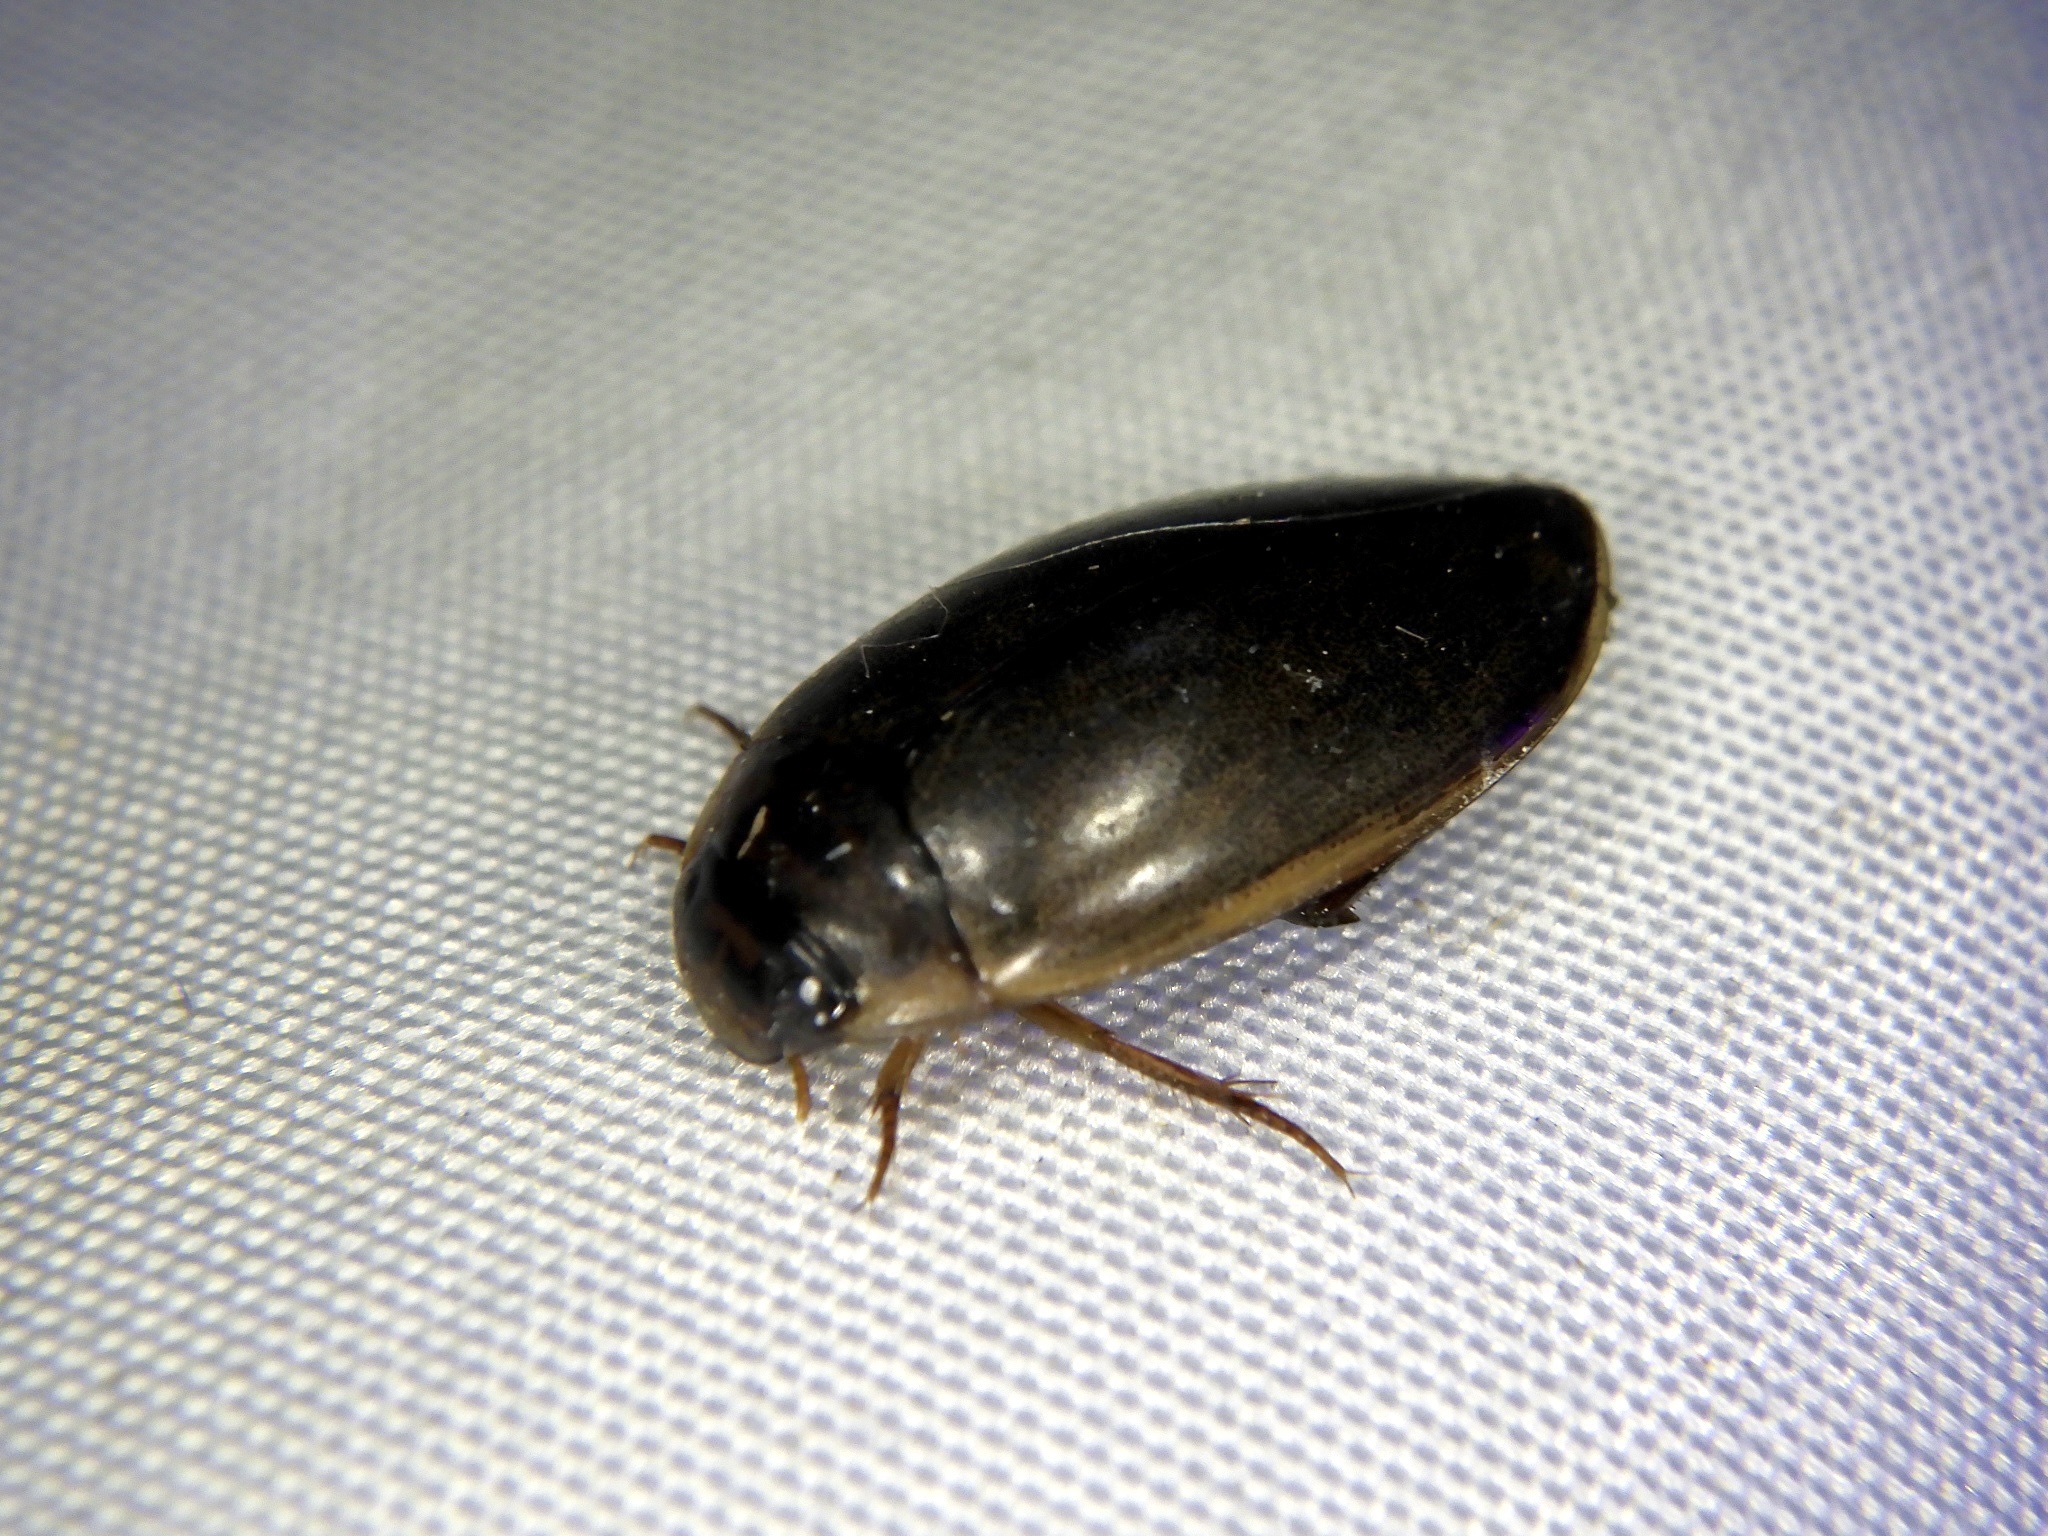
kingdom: Animalia
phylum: Arthropoda
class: Insecta
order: Coleoptera
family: Dytiscidae
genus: Rhantus
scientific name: Rhantus suturalis
